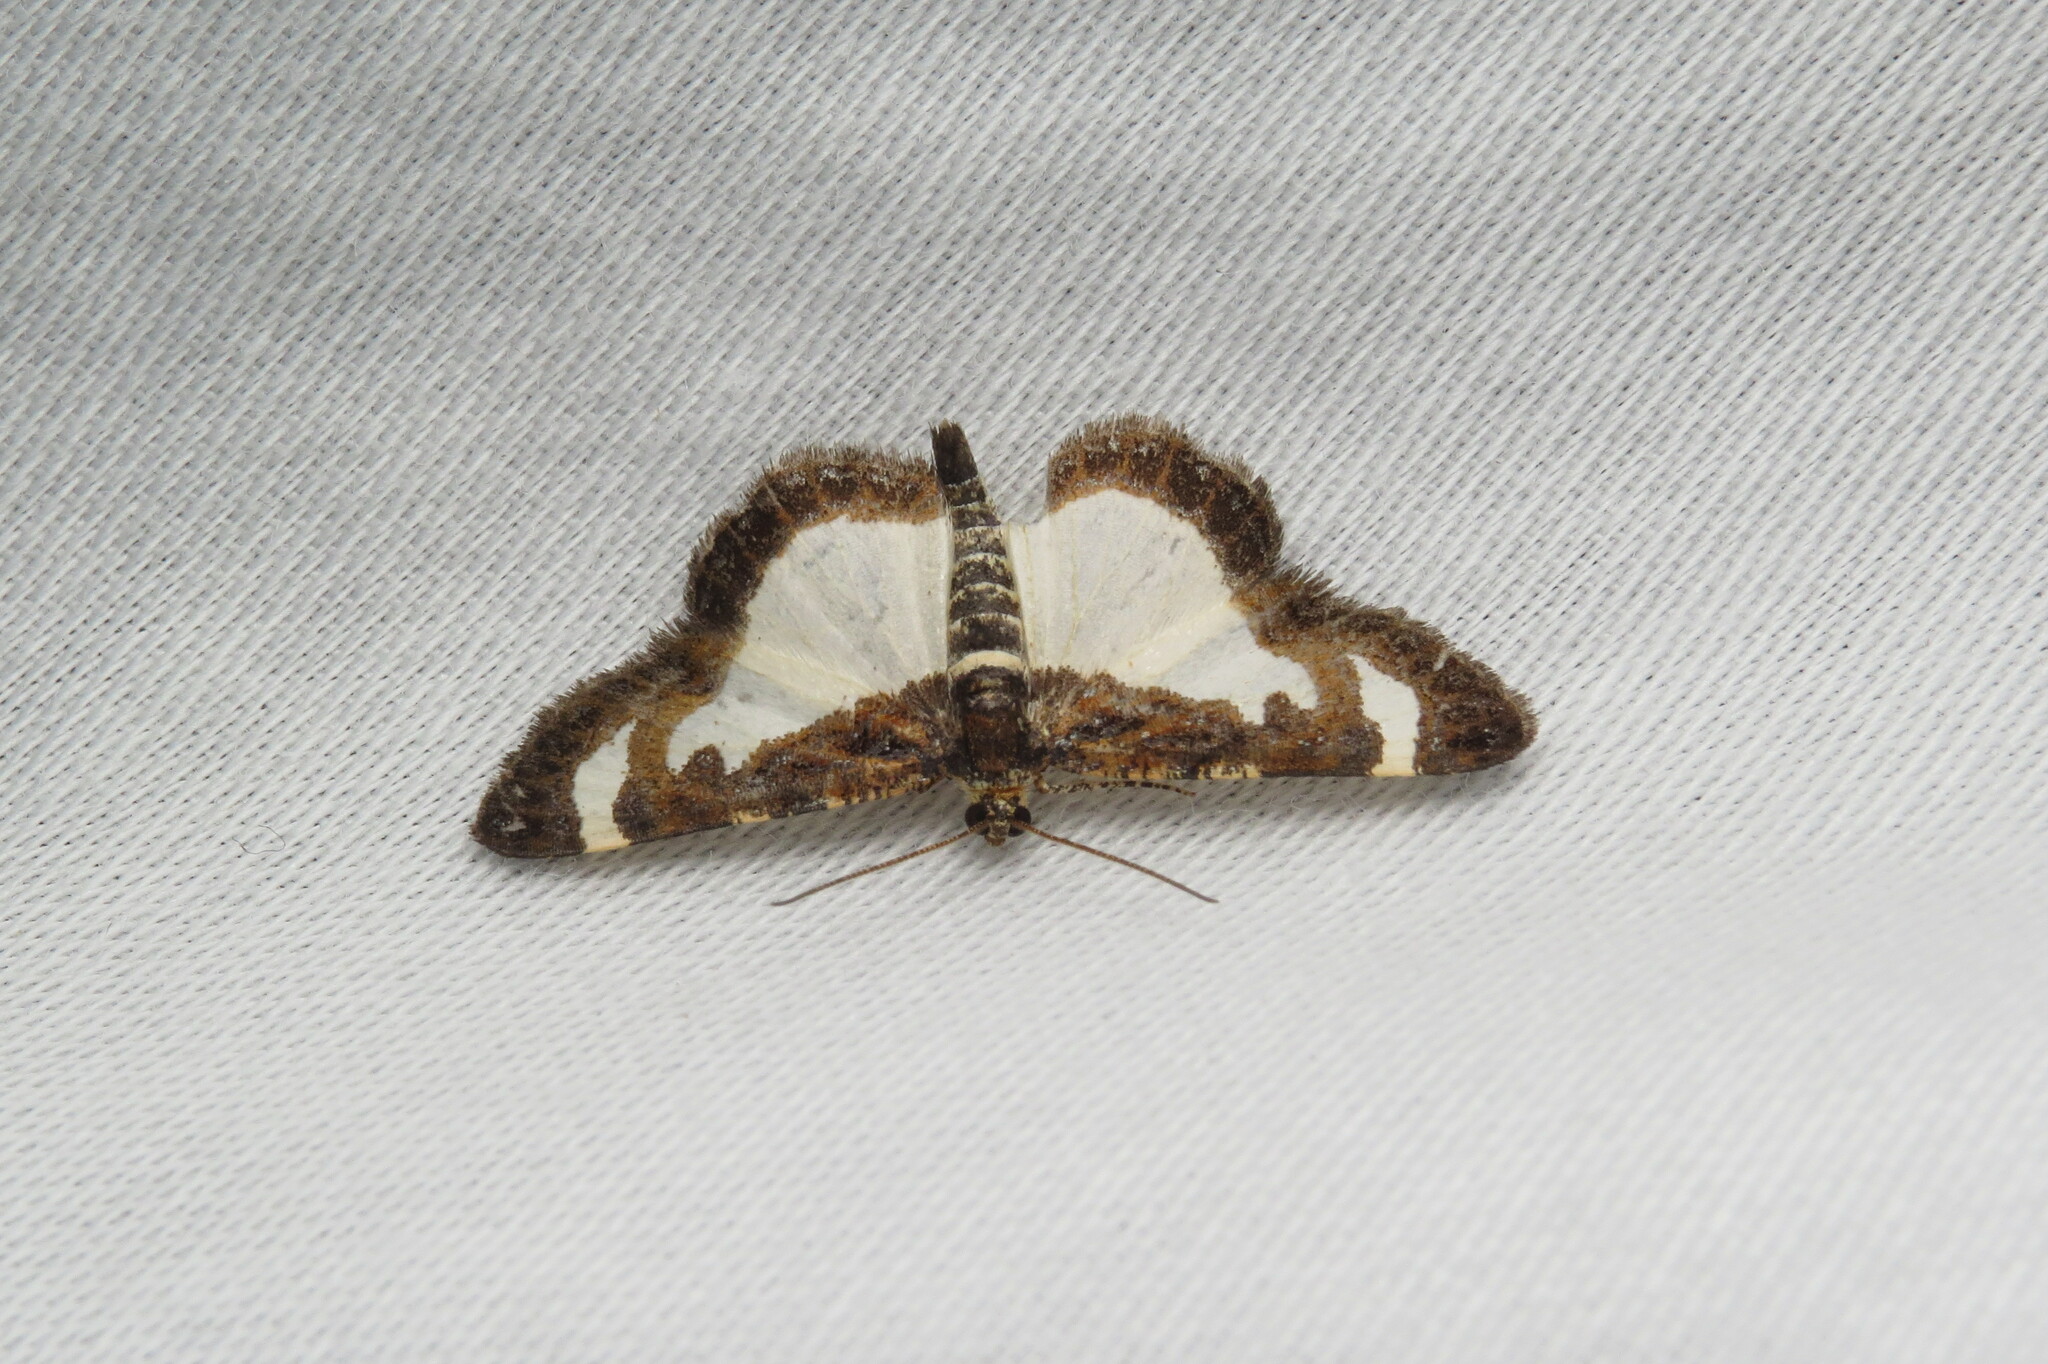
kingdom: Animalia
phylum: Arthropoda
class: Insecta
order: Lepidoptera
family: Geometridae
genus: Heliomata
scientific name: Heliomata cycladata
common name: Common spring moth
